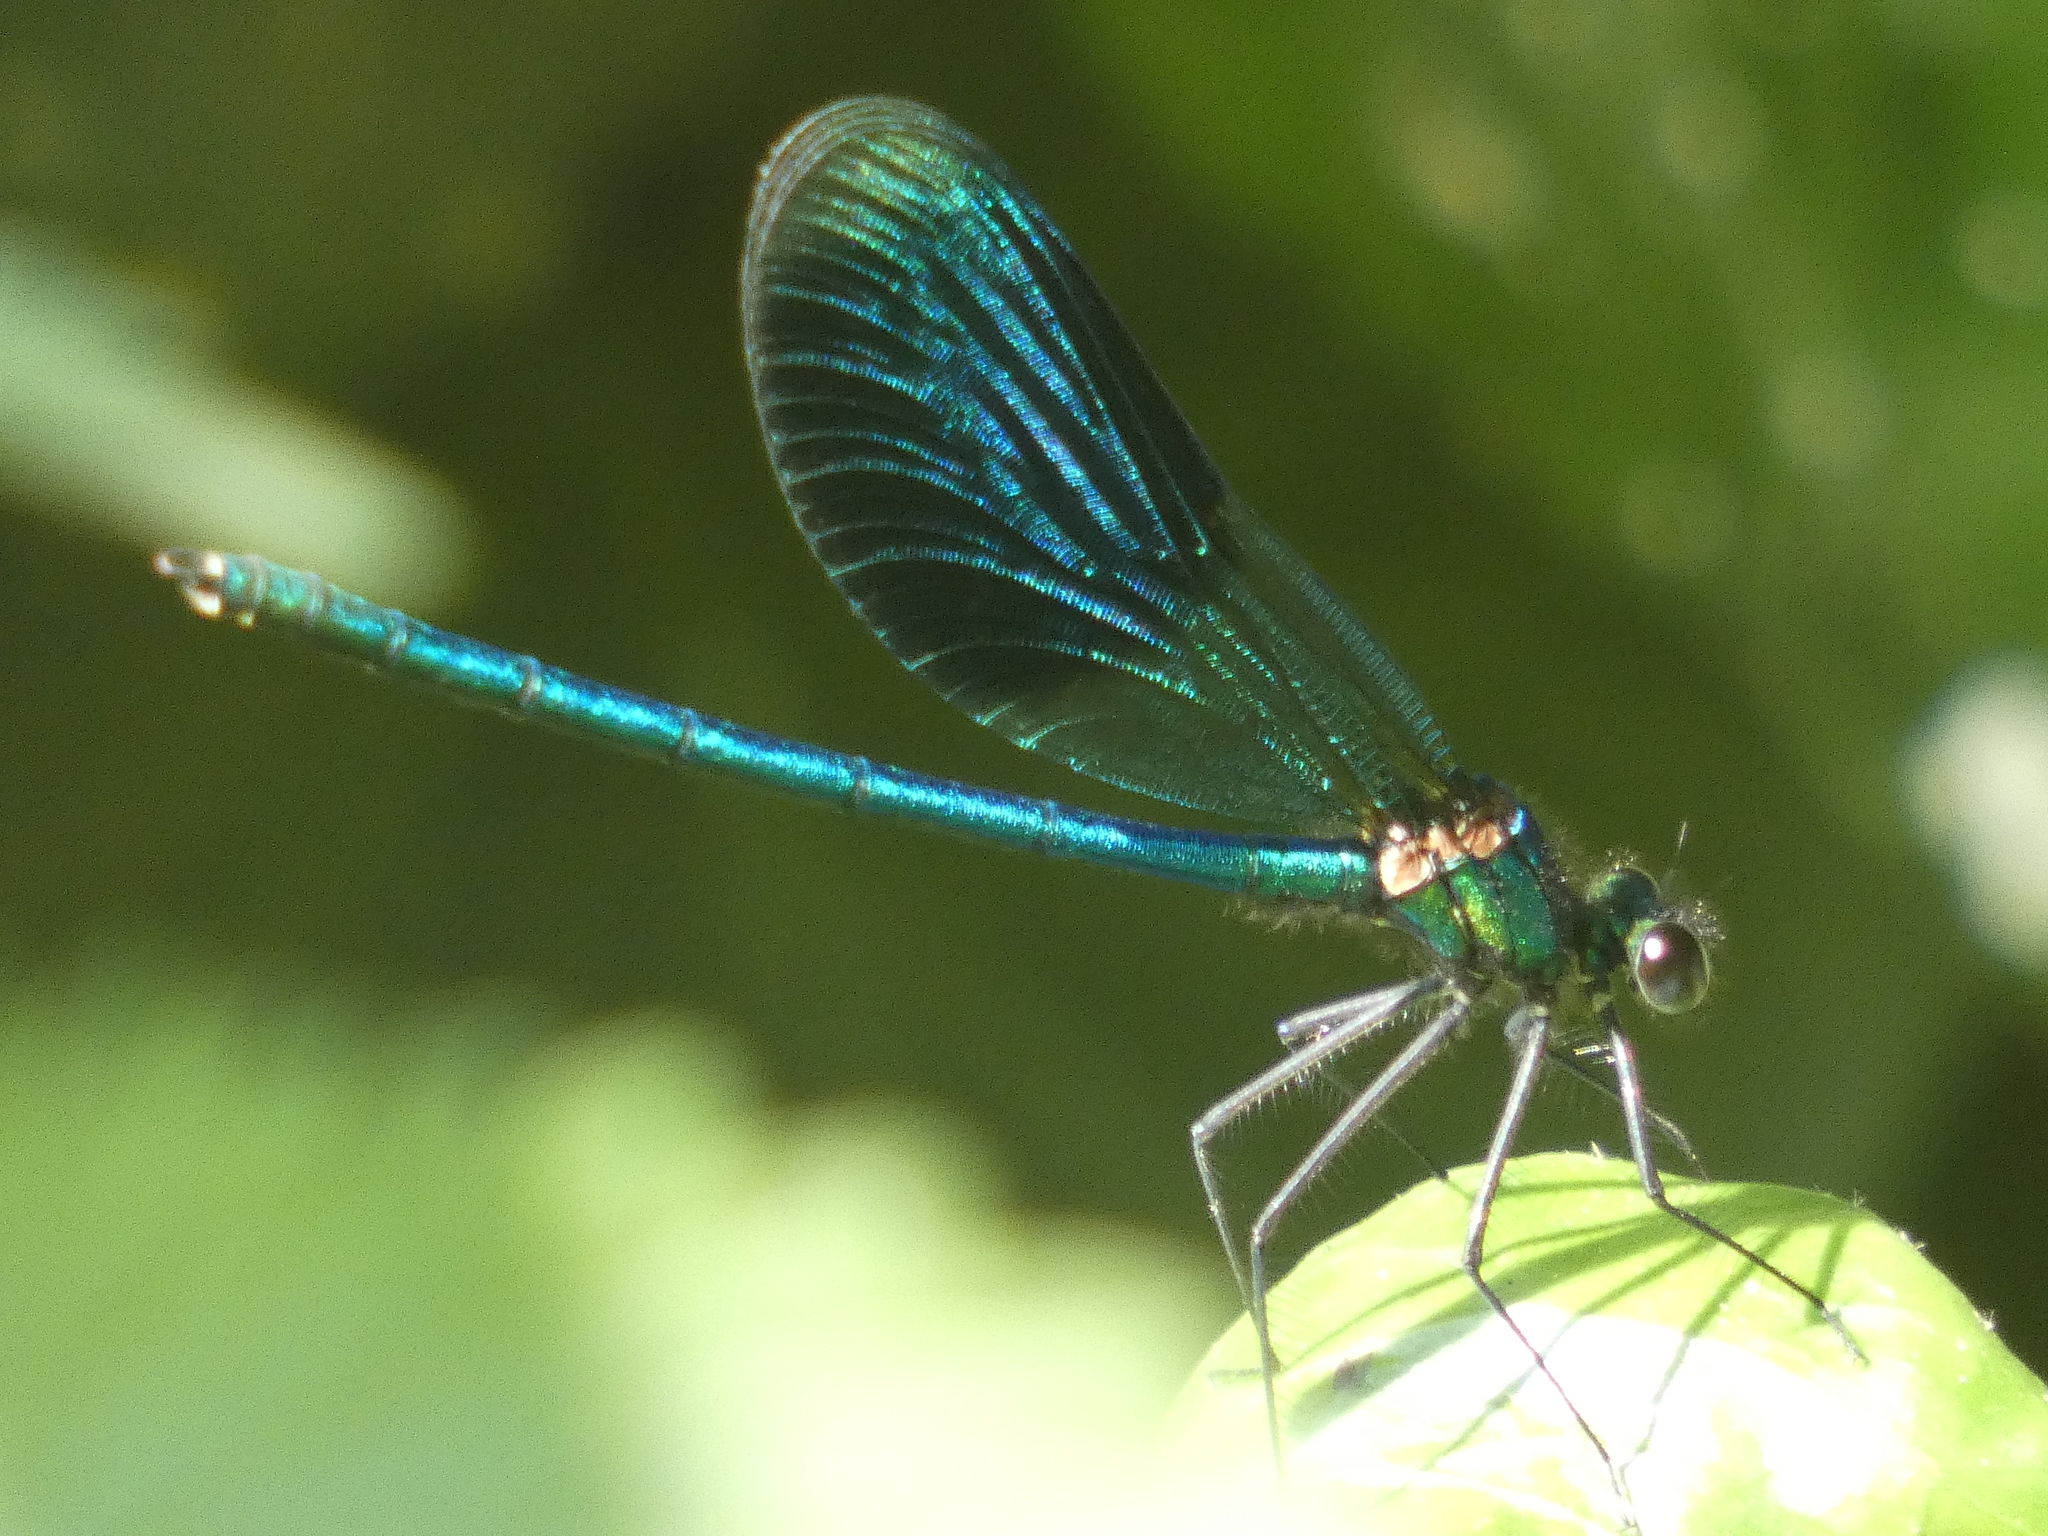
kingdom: Animalia
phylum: Arthropoda
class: Insecta
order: Odonata
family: Calopterygidae
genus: Calopteryx
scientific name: Calopteryx splendens
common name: Banded demoiselle
